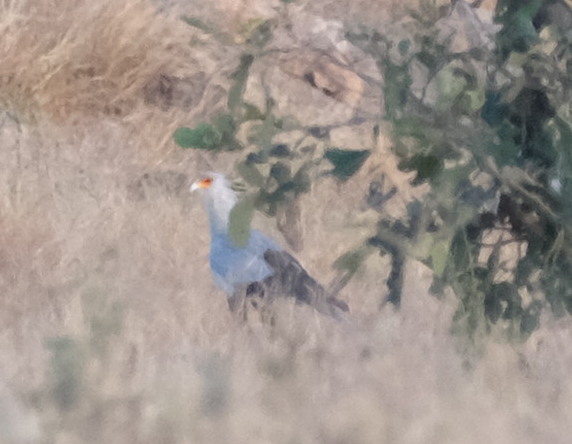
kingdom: Animalia
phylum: Chordata
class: Aves
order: Accipitriformes
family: Sagittariidae
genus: Sagittarius
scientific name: Sagittarius serpentarius
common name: Secretarybird
